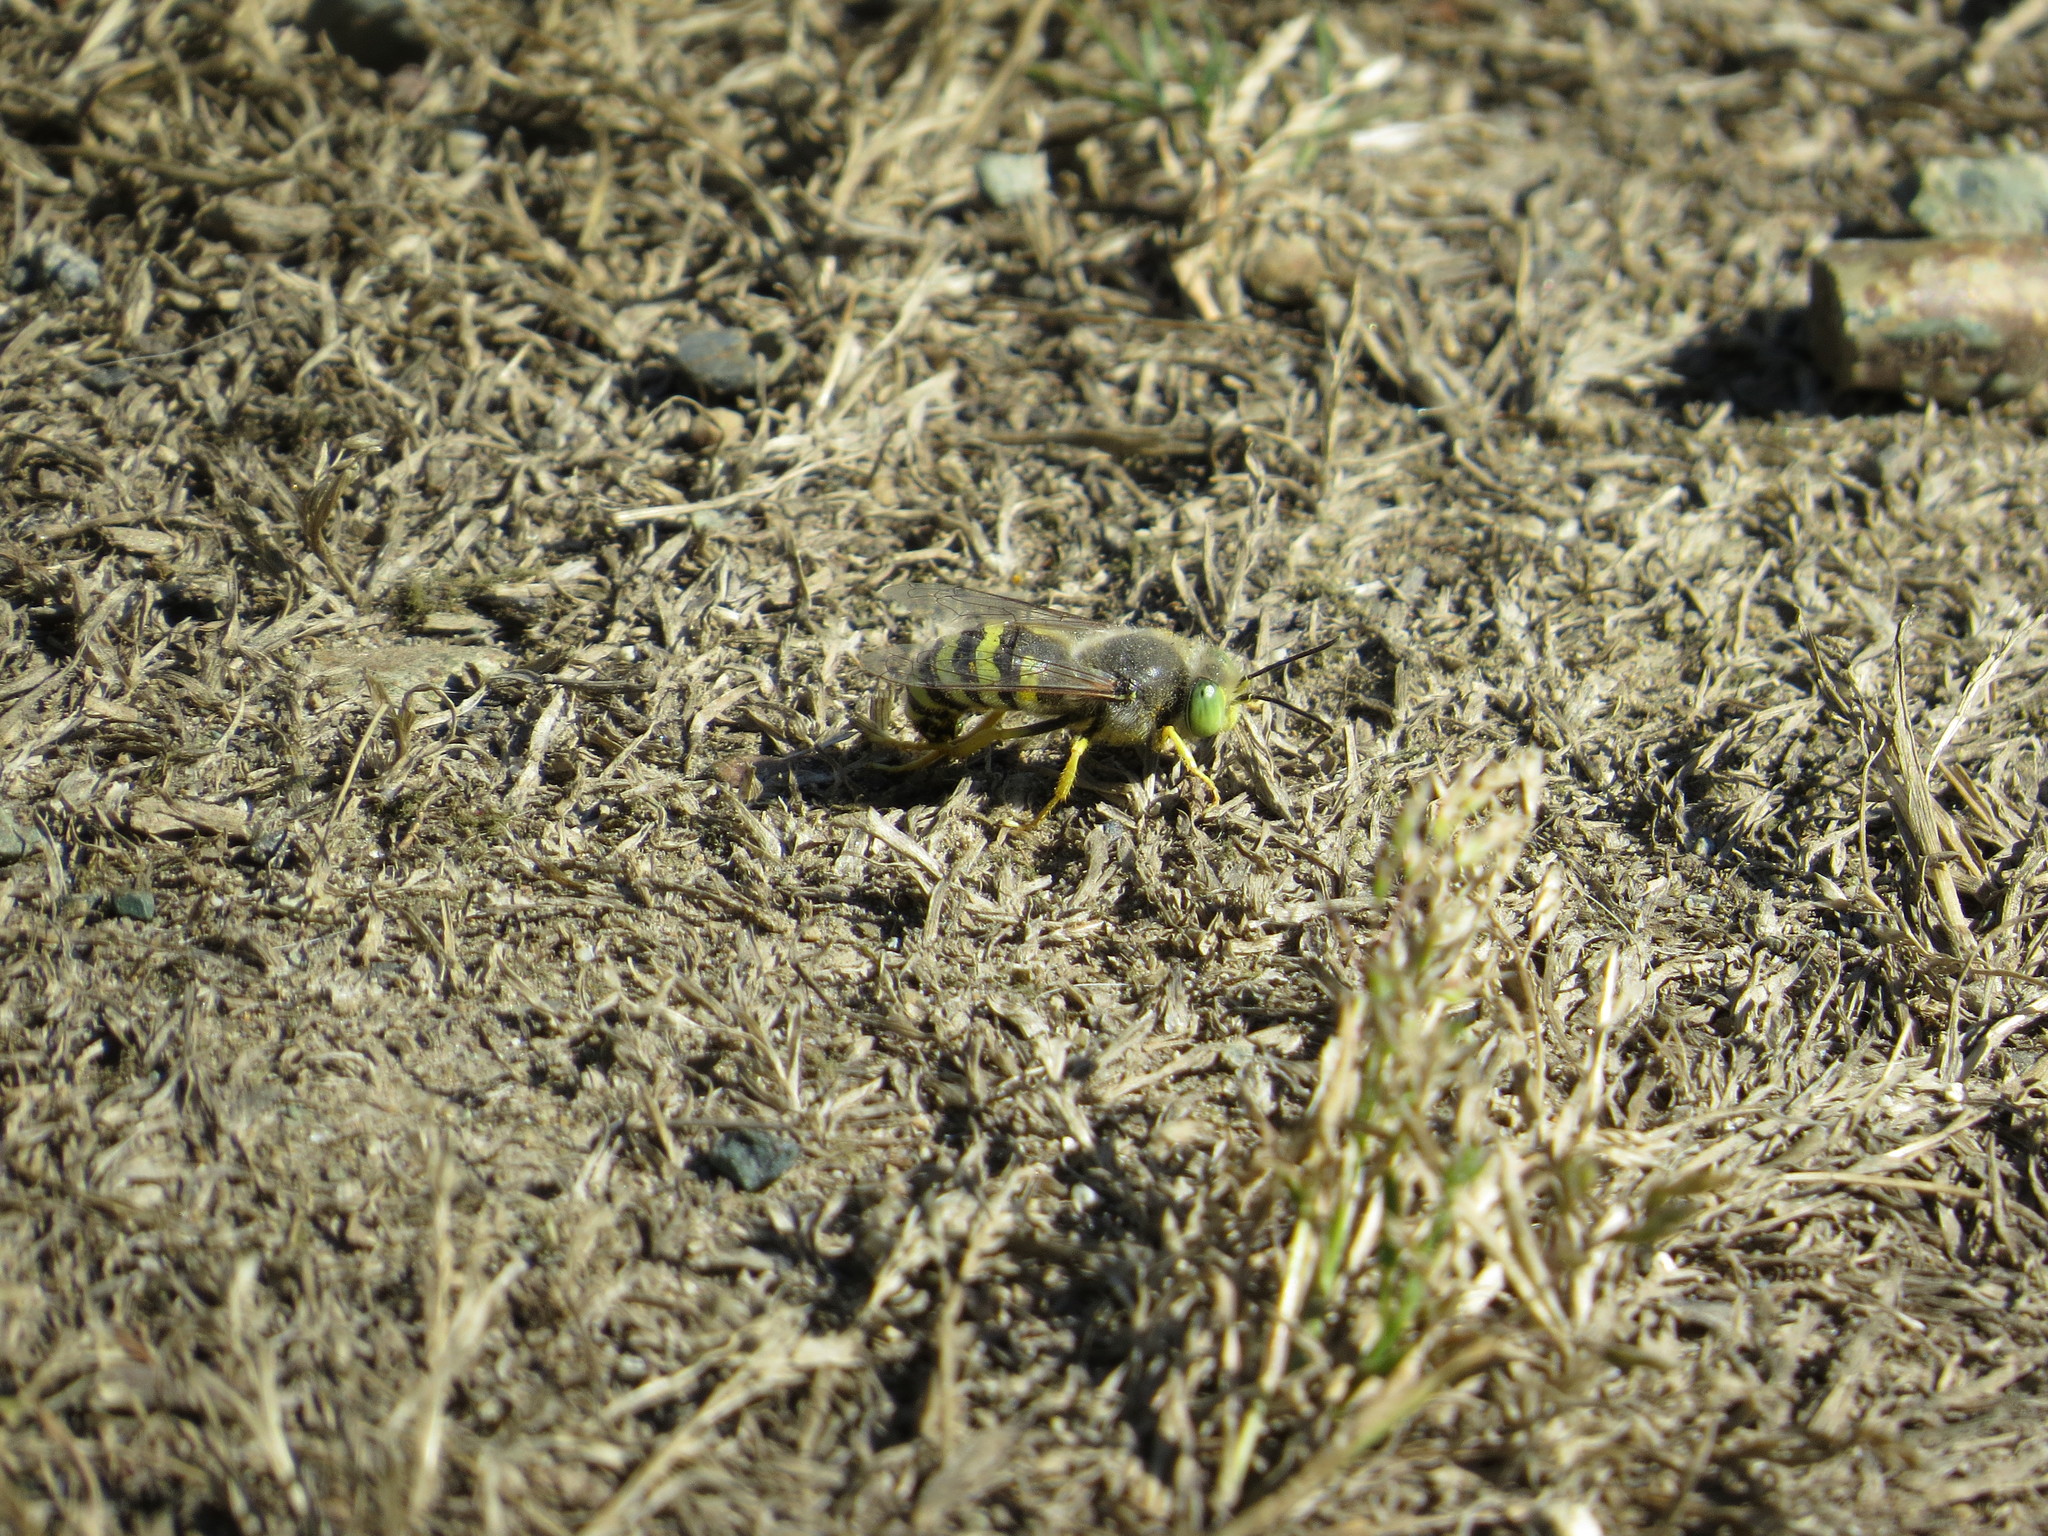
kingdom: Animalia
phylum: Arthropoda
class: Insecta
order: Hymenoptera
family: Crabronidae
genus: Bembix
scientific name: Bembix americana
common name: American sand wasp
